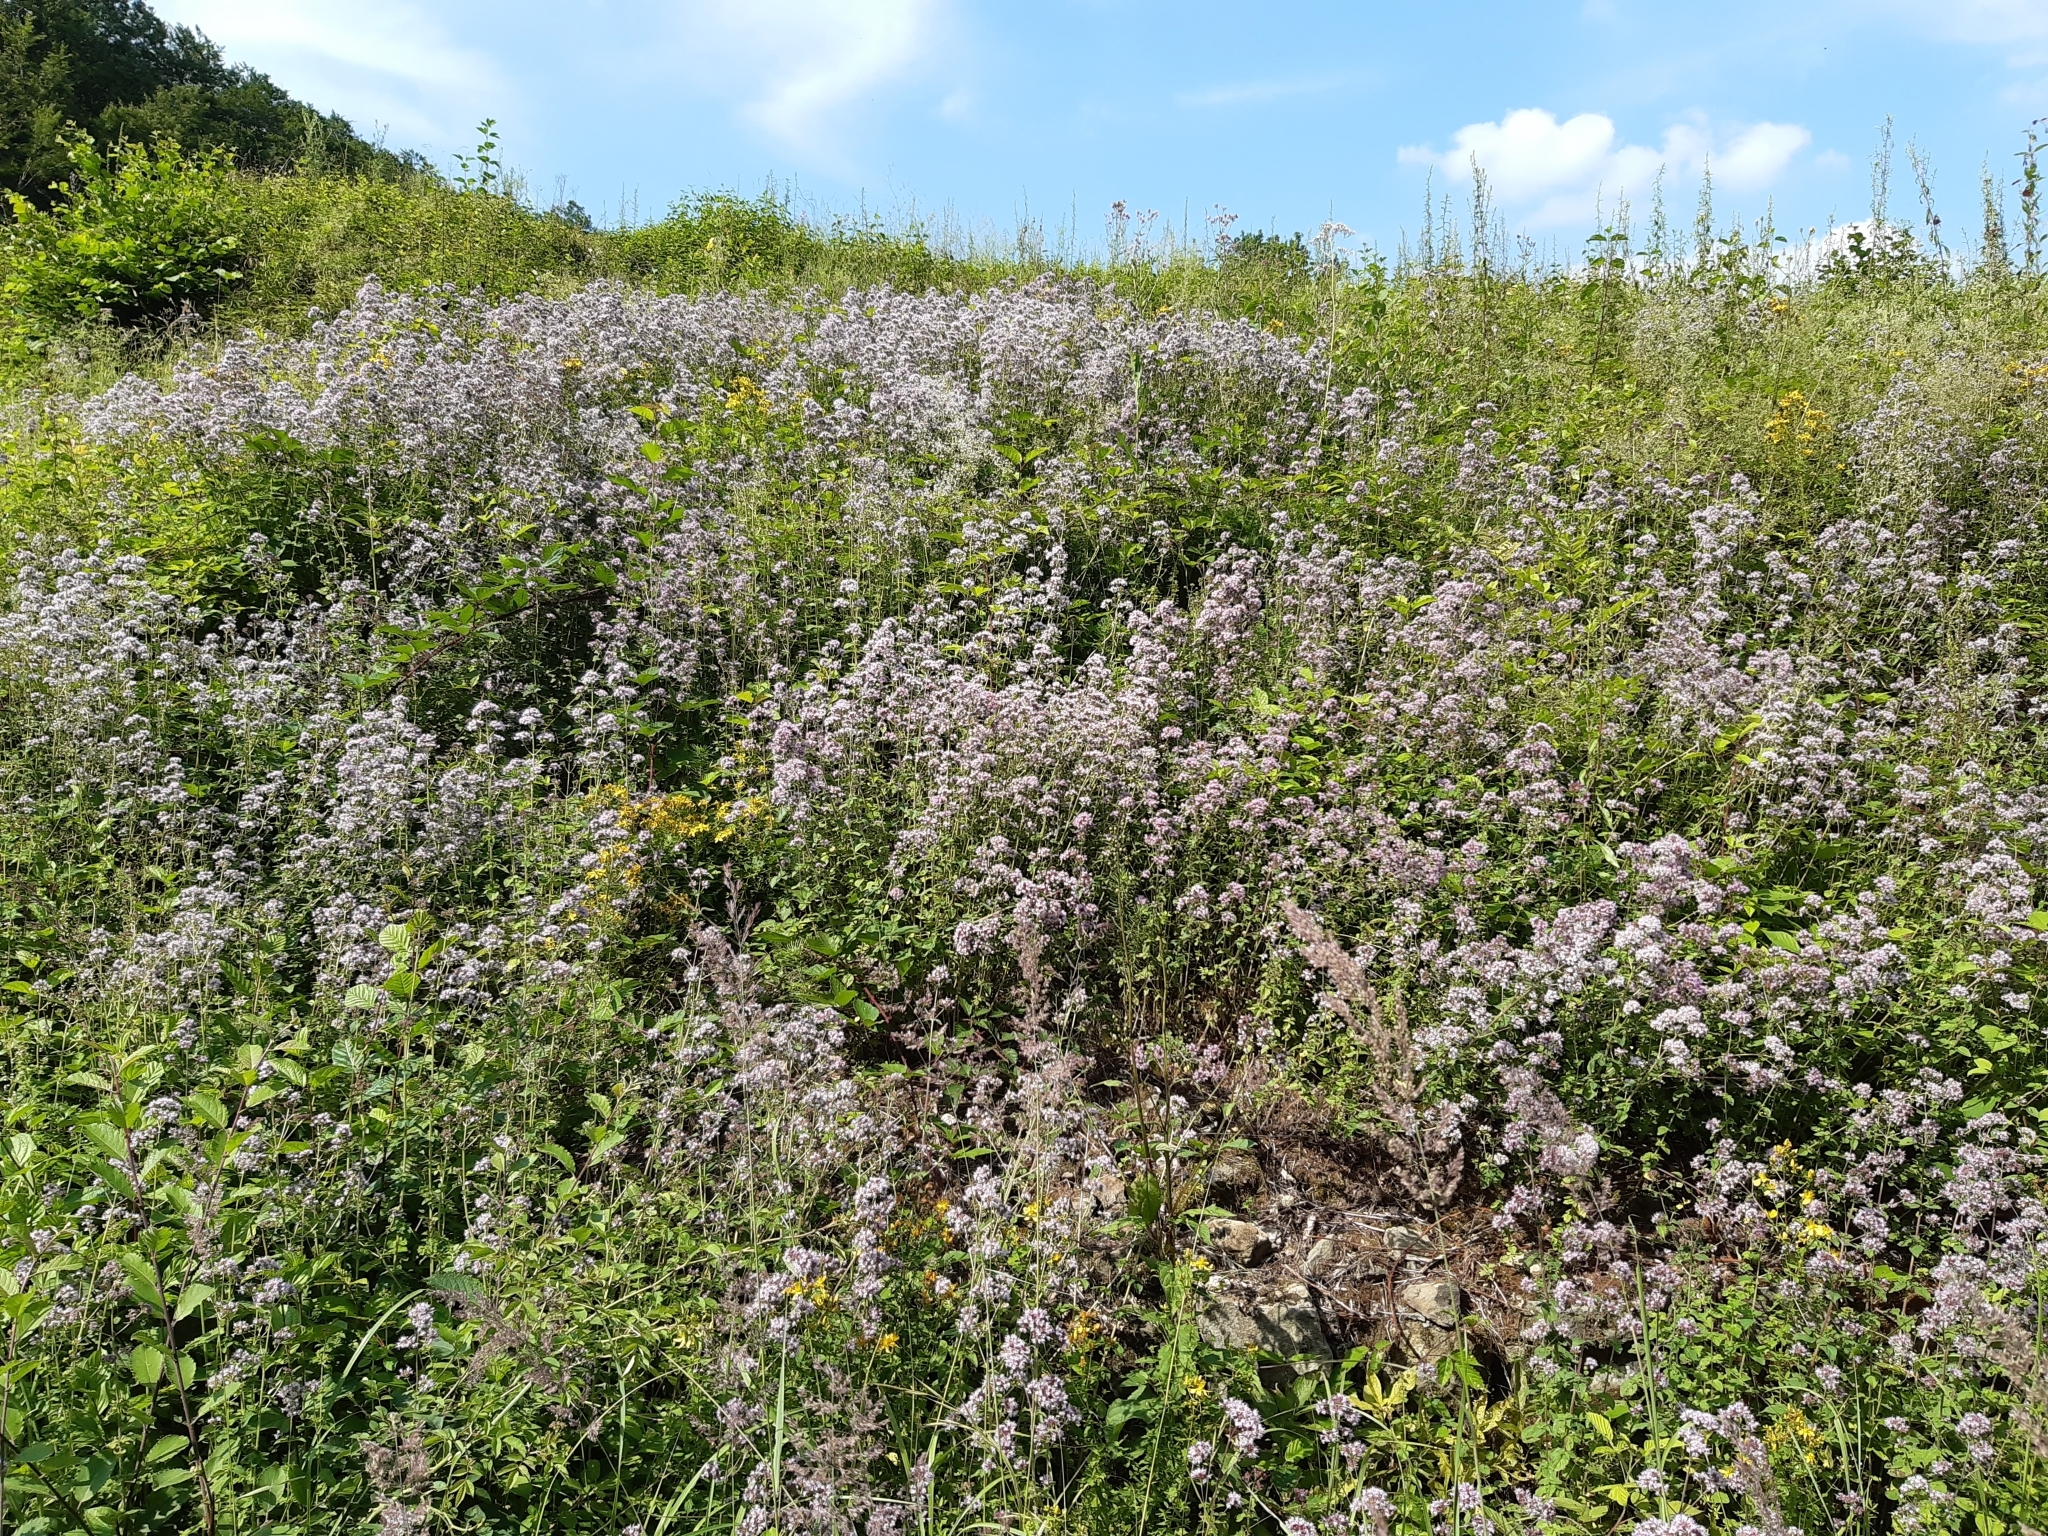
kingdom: Plantae
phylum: Tracheophyta
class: Magnoliopsida
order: Lamiales
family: Lamiaceae
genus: Origanum
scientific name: Origanum vulgare
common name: Wild marjoram
